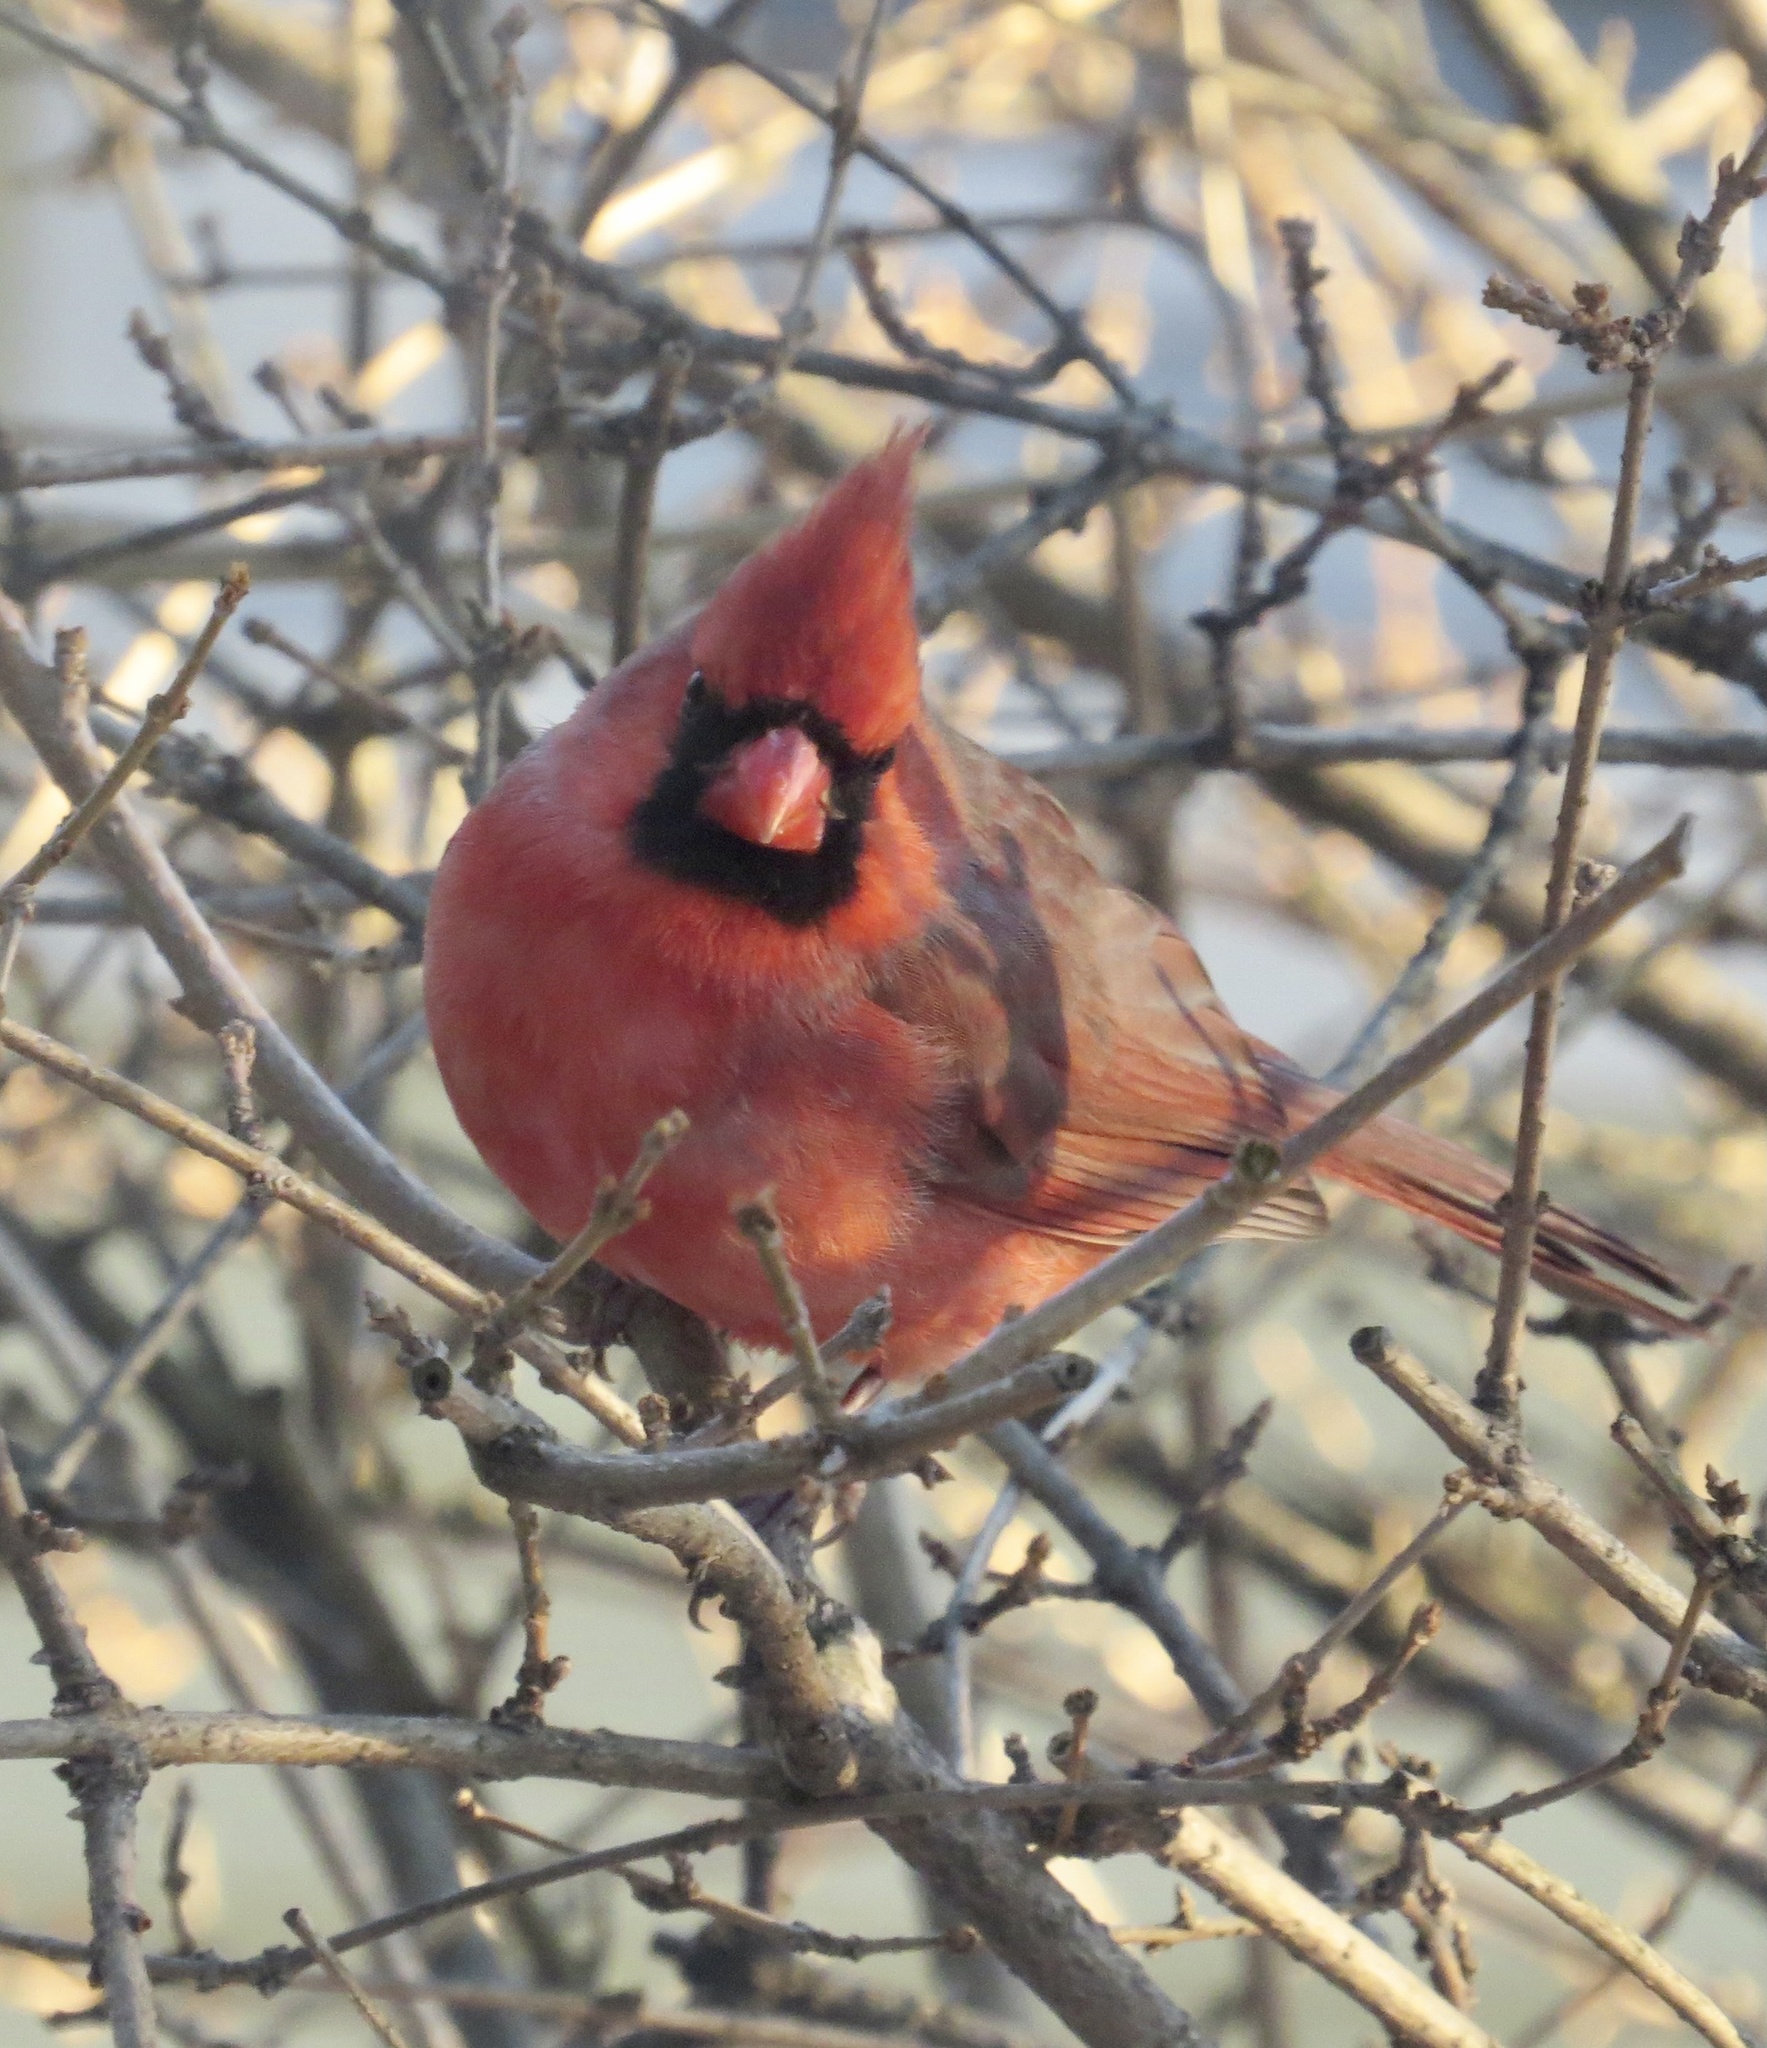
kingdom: Animalia
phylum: Chordata
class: Aves
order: Passeriformes
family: Cardinalidae
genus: Cardinalis
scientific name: Cardinalis cardinalis
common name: Northern cardinal
